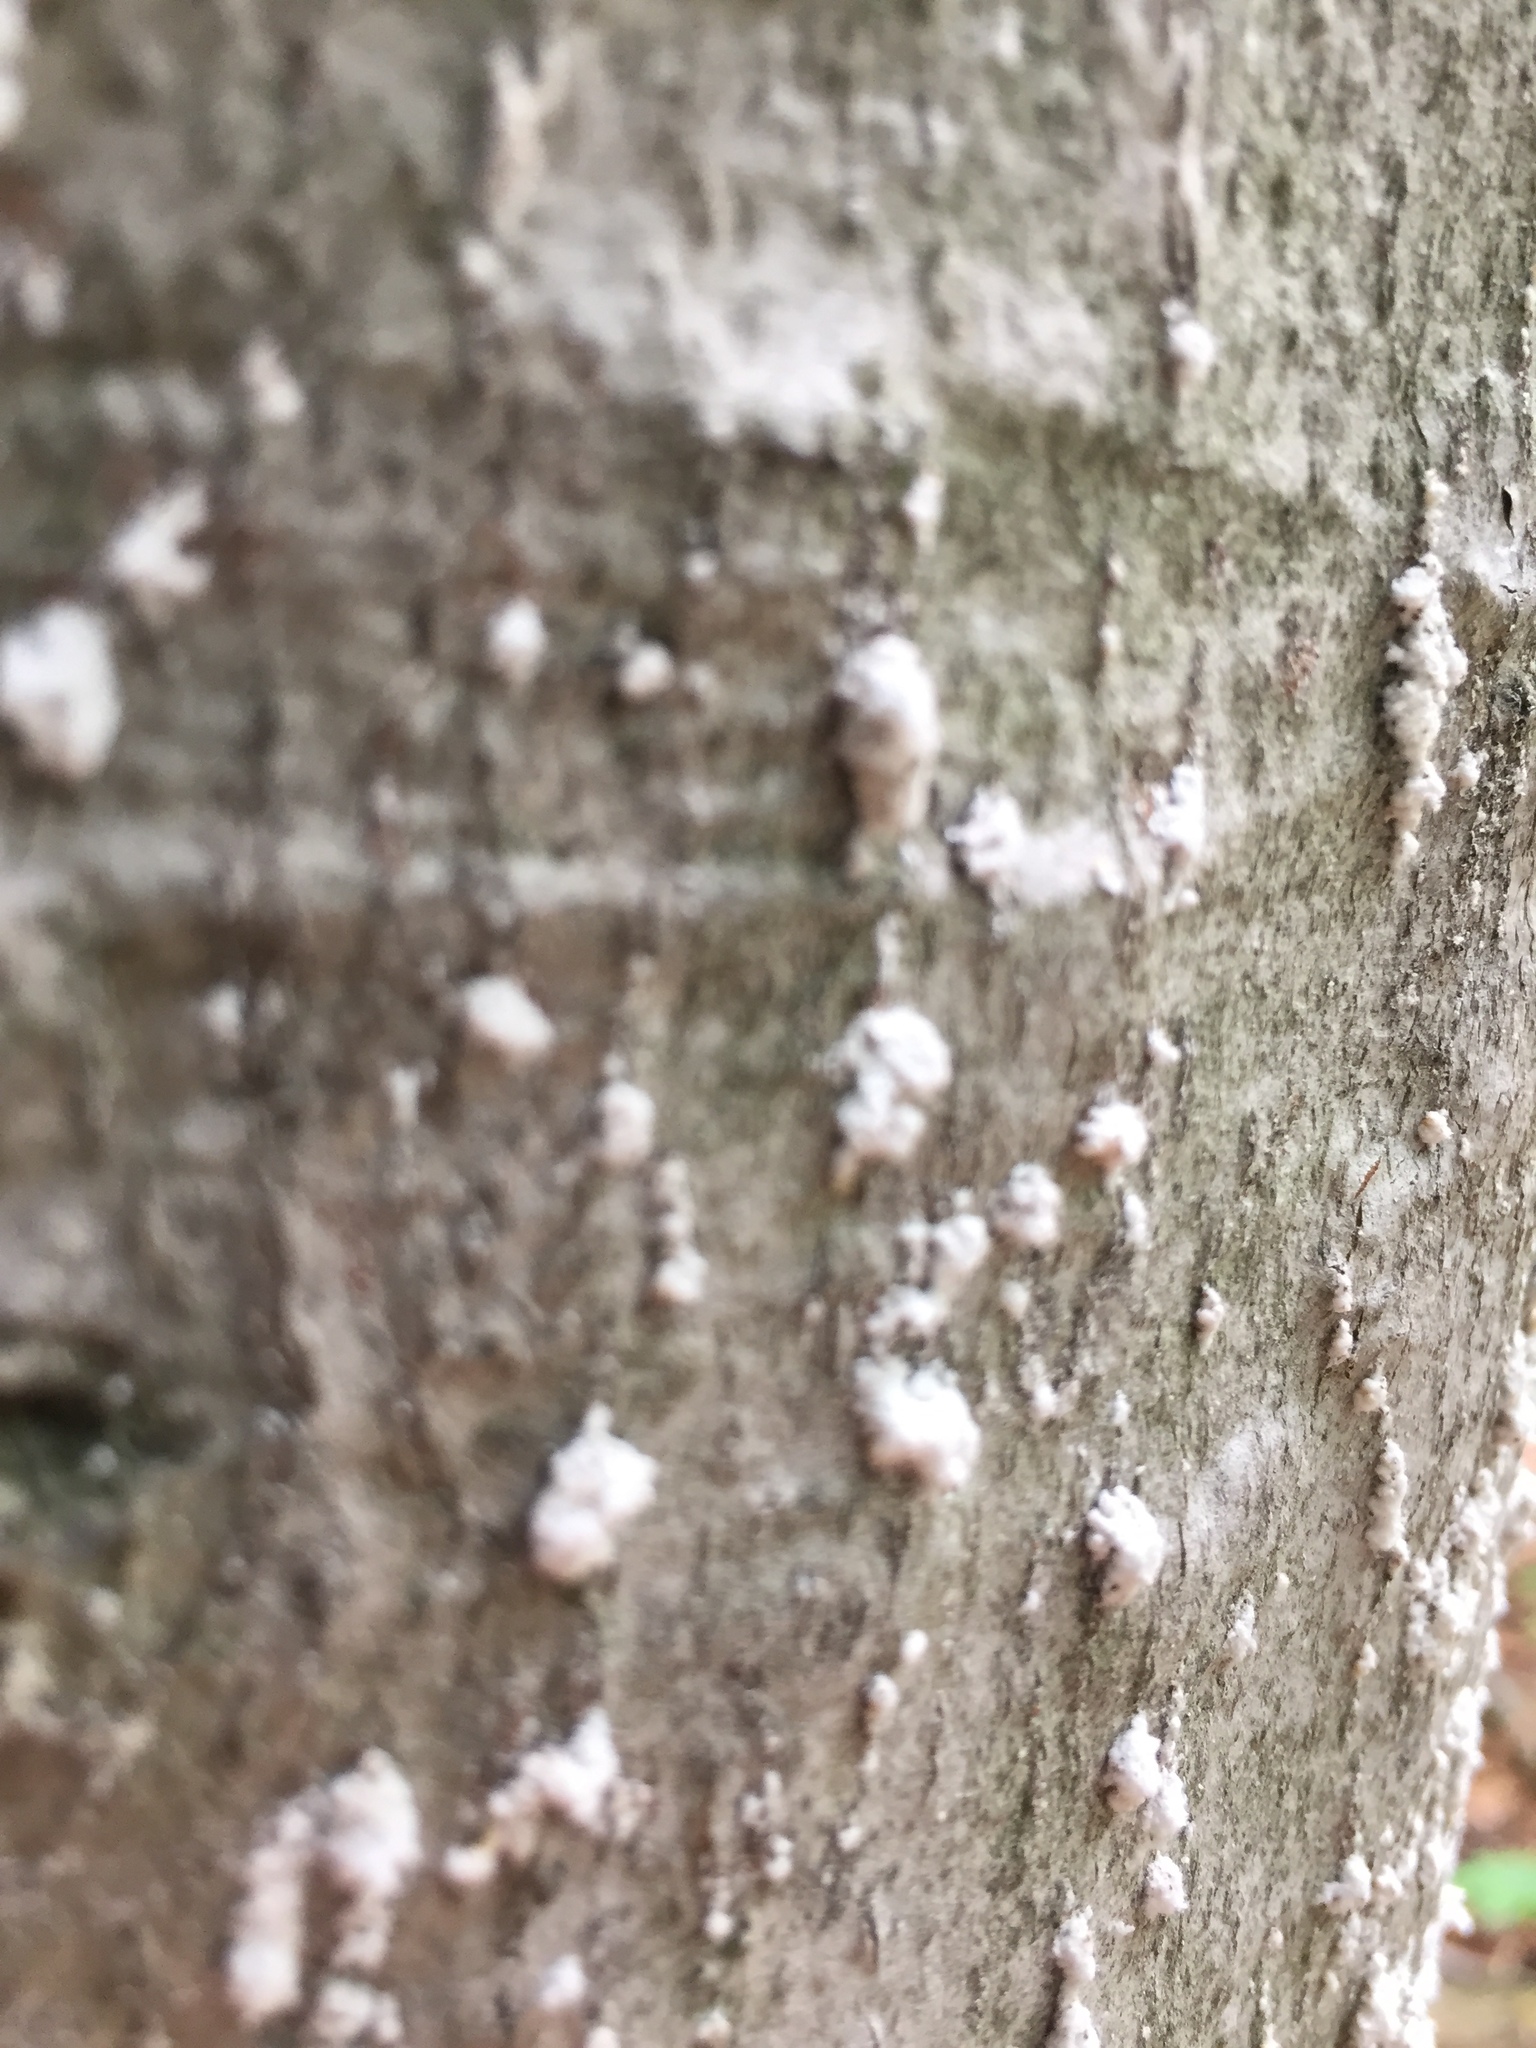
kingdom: Animalia
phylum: Arthropoda
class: Insecta
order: Hemiptera
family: Eriococcidae
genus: Cryptococcus
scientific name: Cryptococcus fagisuga
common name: Beech scale
